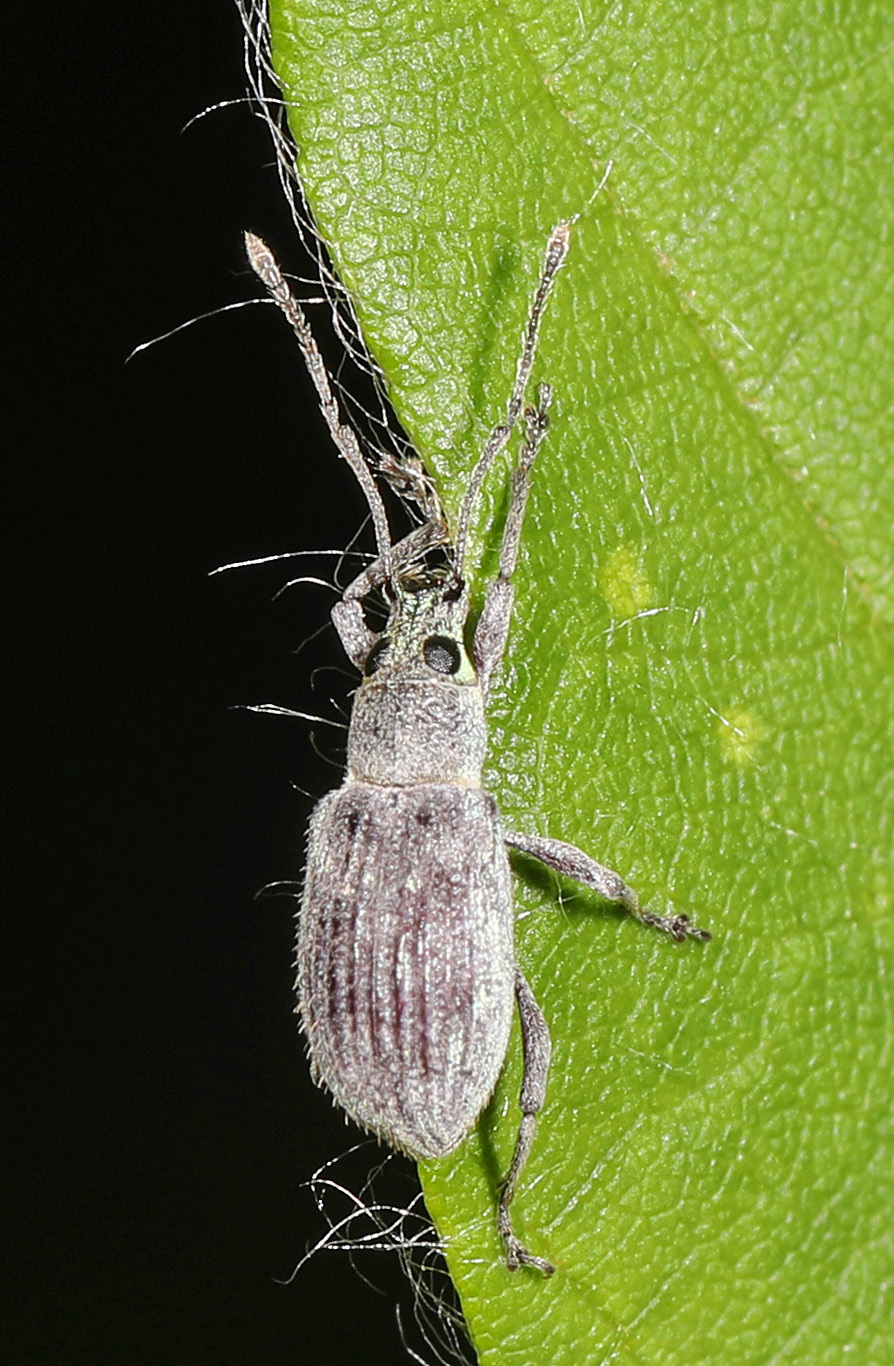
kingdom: Animalia
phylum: Arthropoda
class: Insecta
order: Coleoptera
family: Curculionidae
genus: Cyrtepistomus
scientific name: Cyrtepistomus castaneus
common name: Weevil
